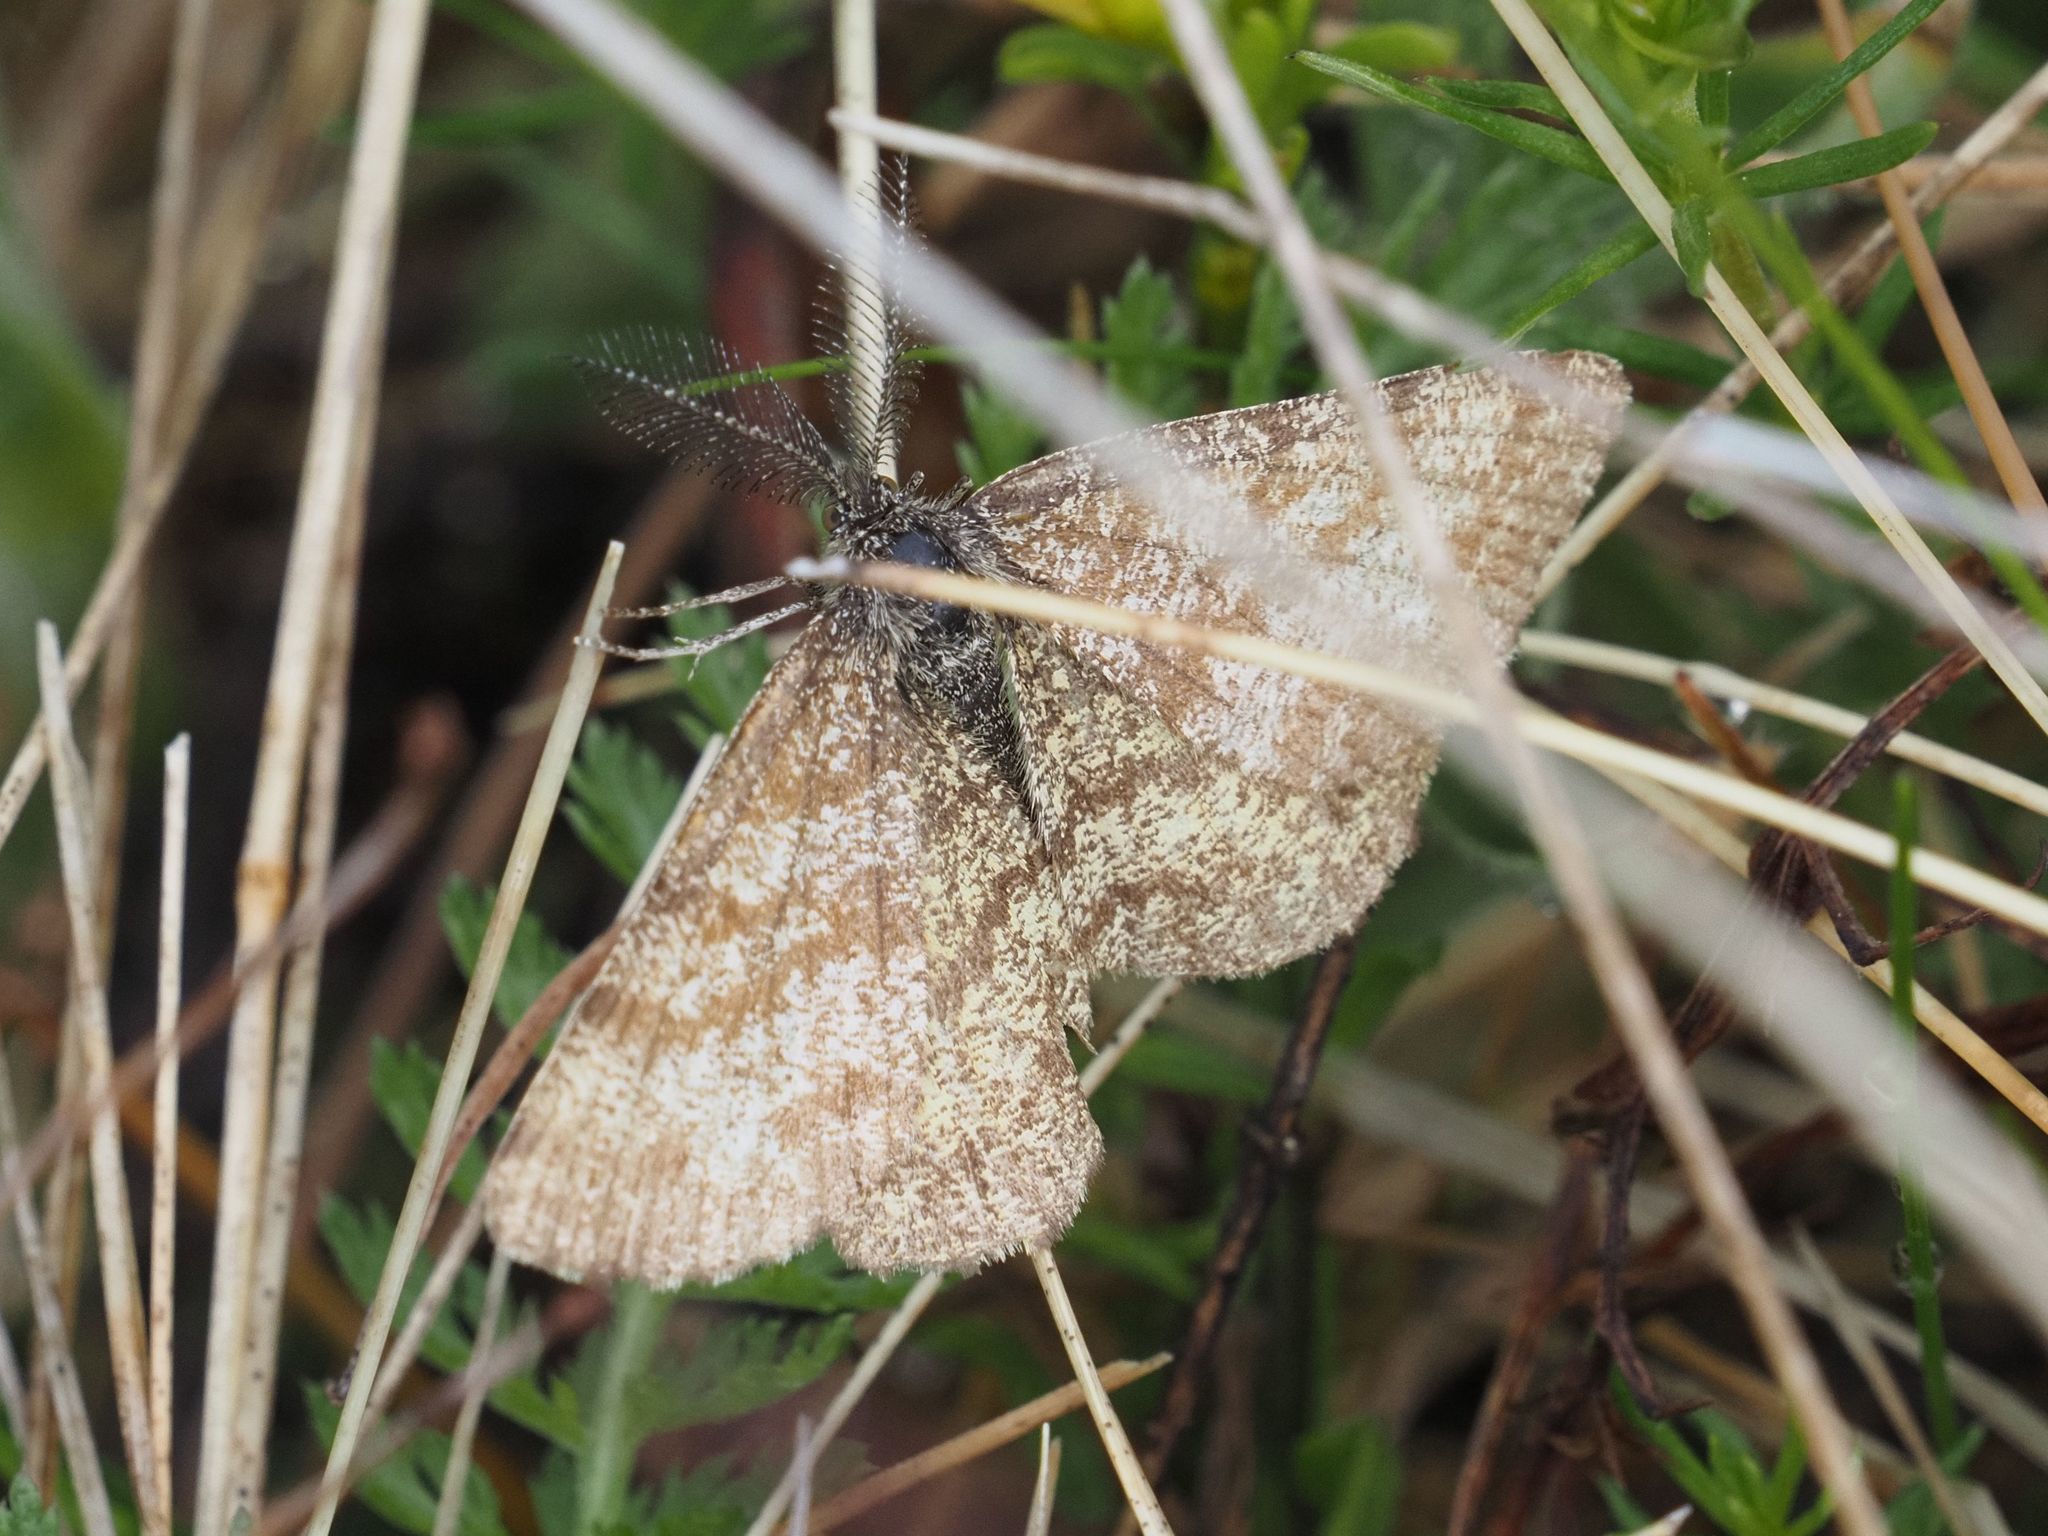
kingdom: Animalia
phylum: Arthropoda
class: Insecta
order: Lepidoptera
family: Geometridae
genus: Ematurga
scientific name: Ematurga atomaria
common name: Common heath
